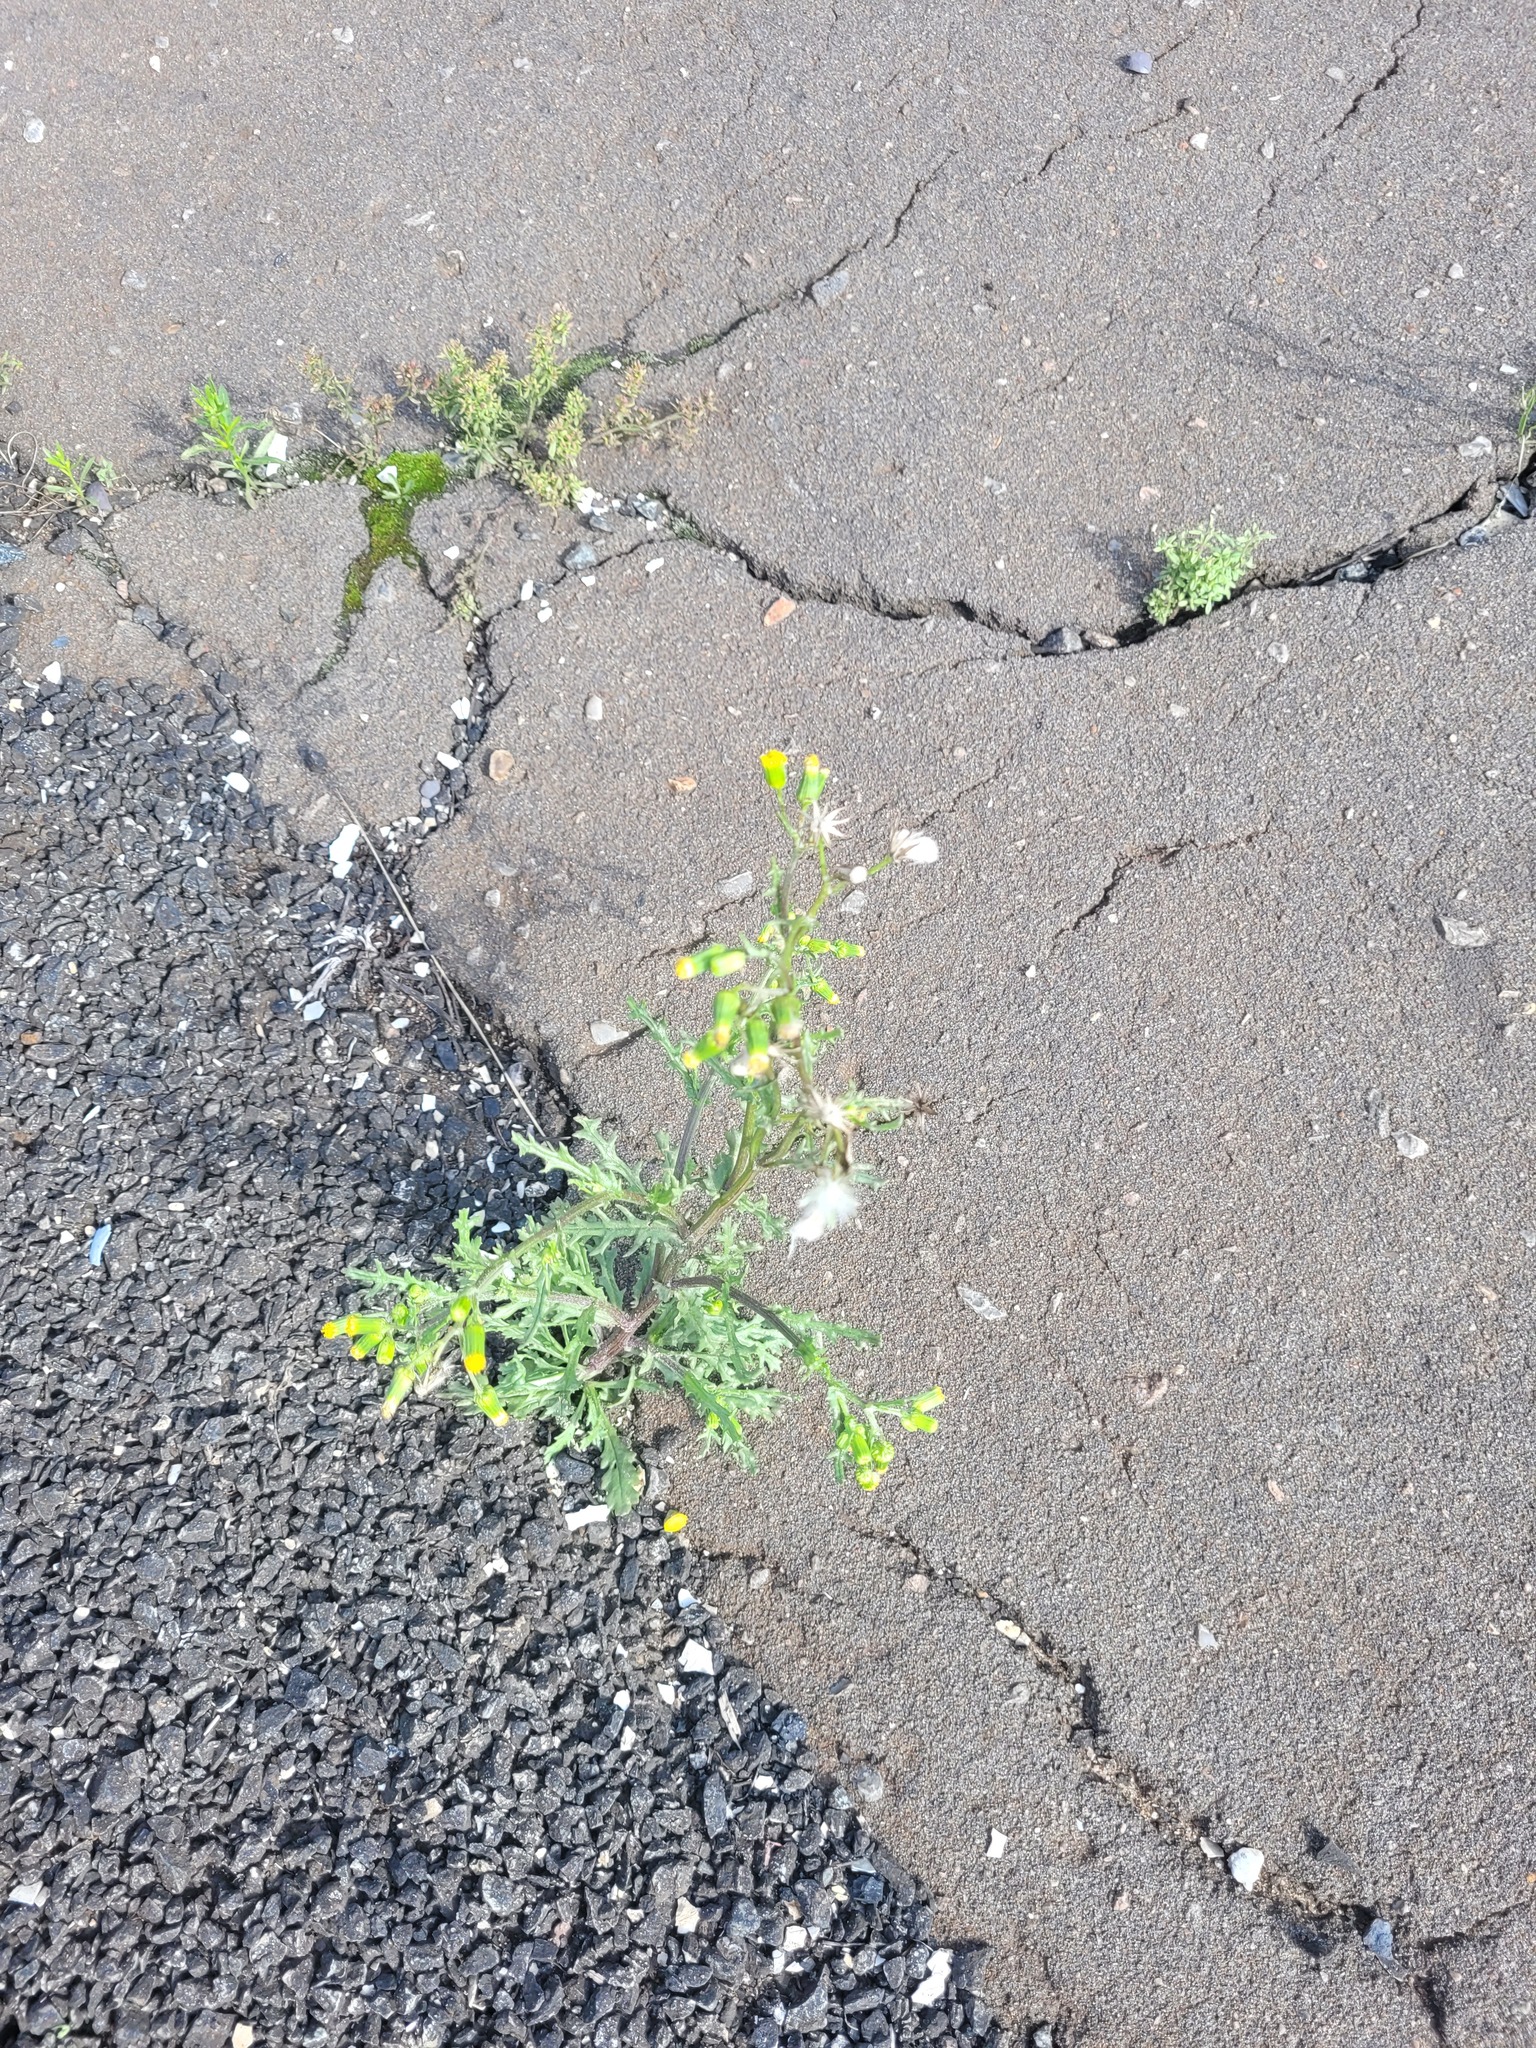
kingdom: Plantae
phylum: Tracheophyta
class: Magnoliopsida
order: Asterales
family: Asteraceae
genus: Senecio
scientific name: Senecio vulgaris
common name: Old-man-in-the-spring
